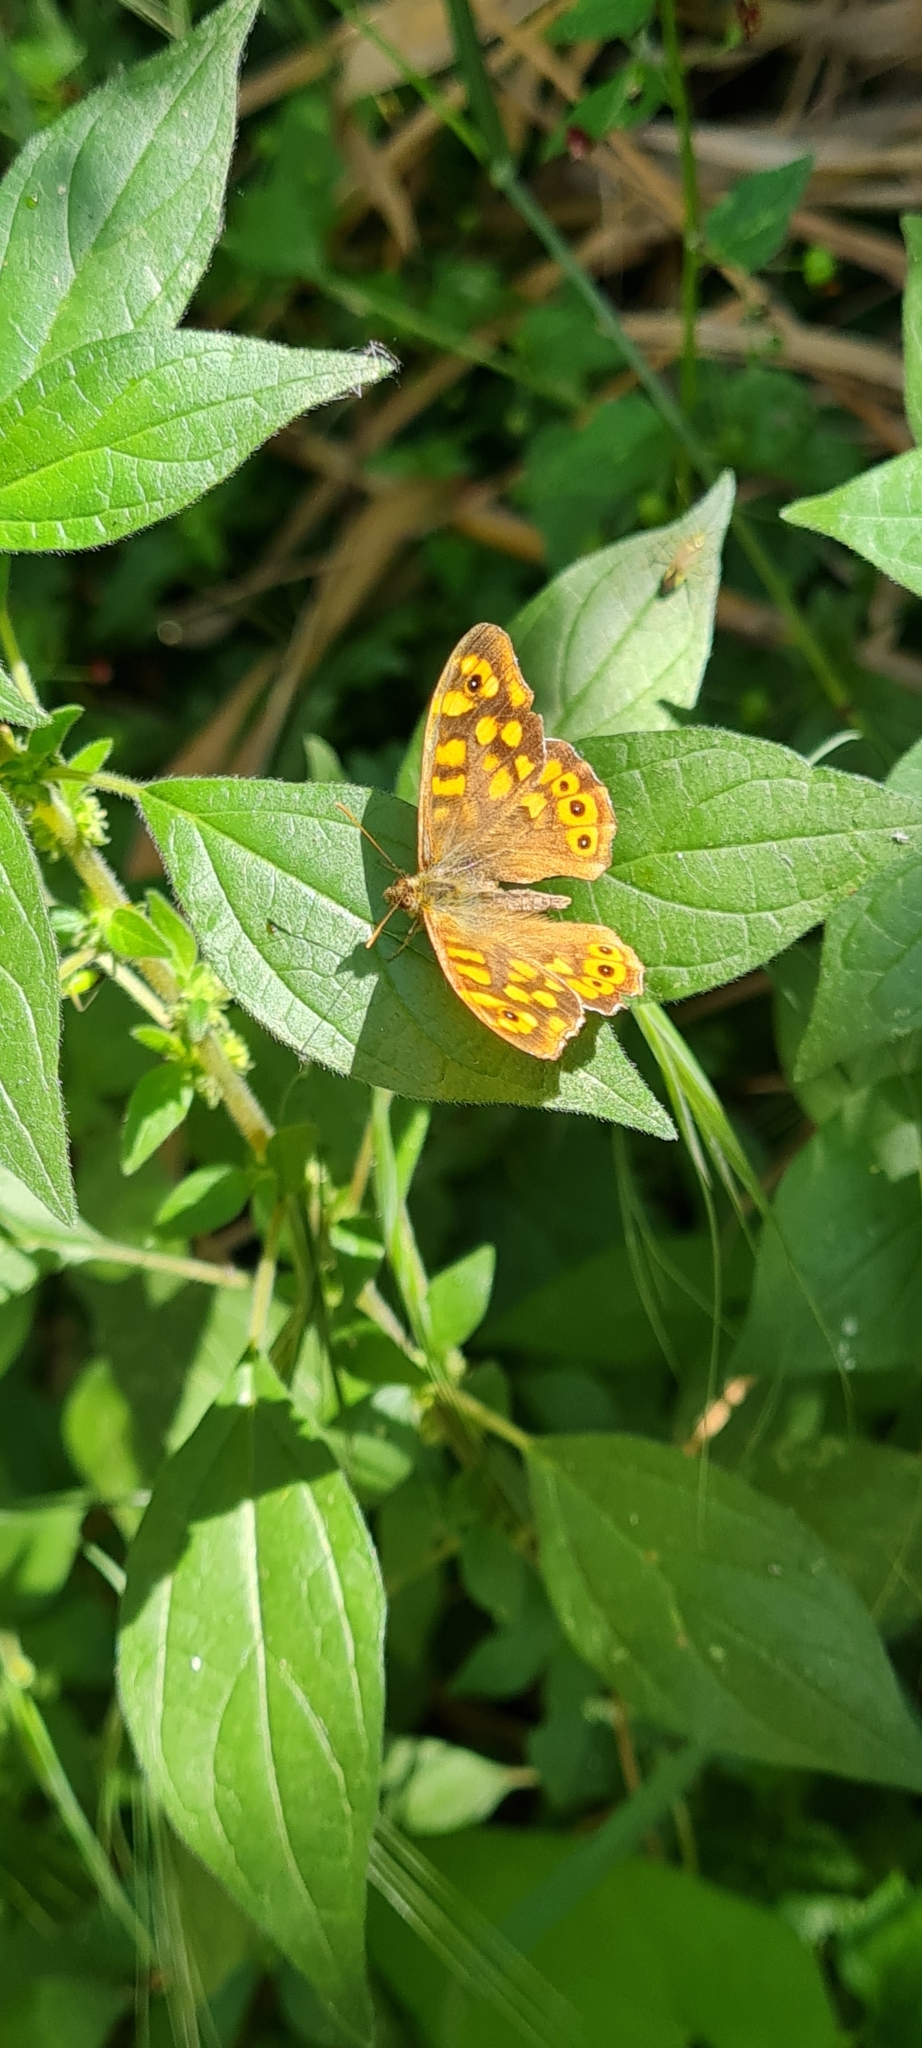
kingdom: Animalia
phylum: Arthropoda
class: Insecta
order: Lepidoptera
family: Nymphalidae
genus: Pararge
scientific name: Pararge aegeria
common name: Speckled wood
